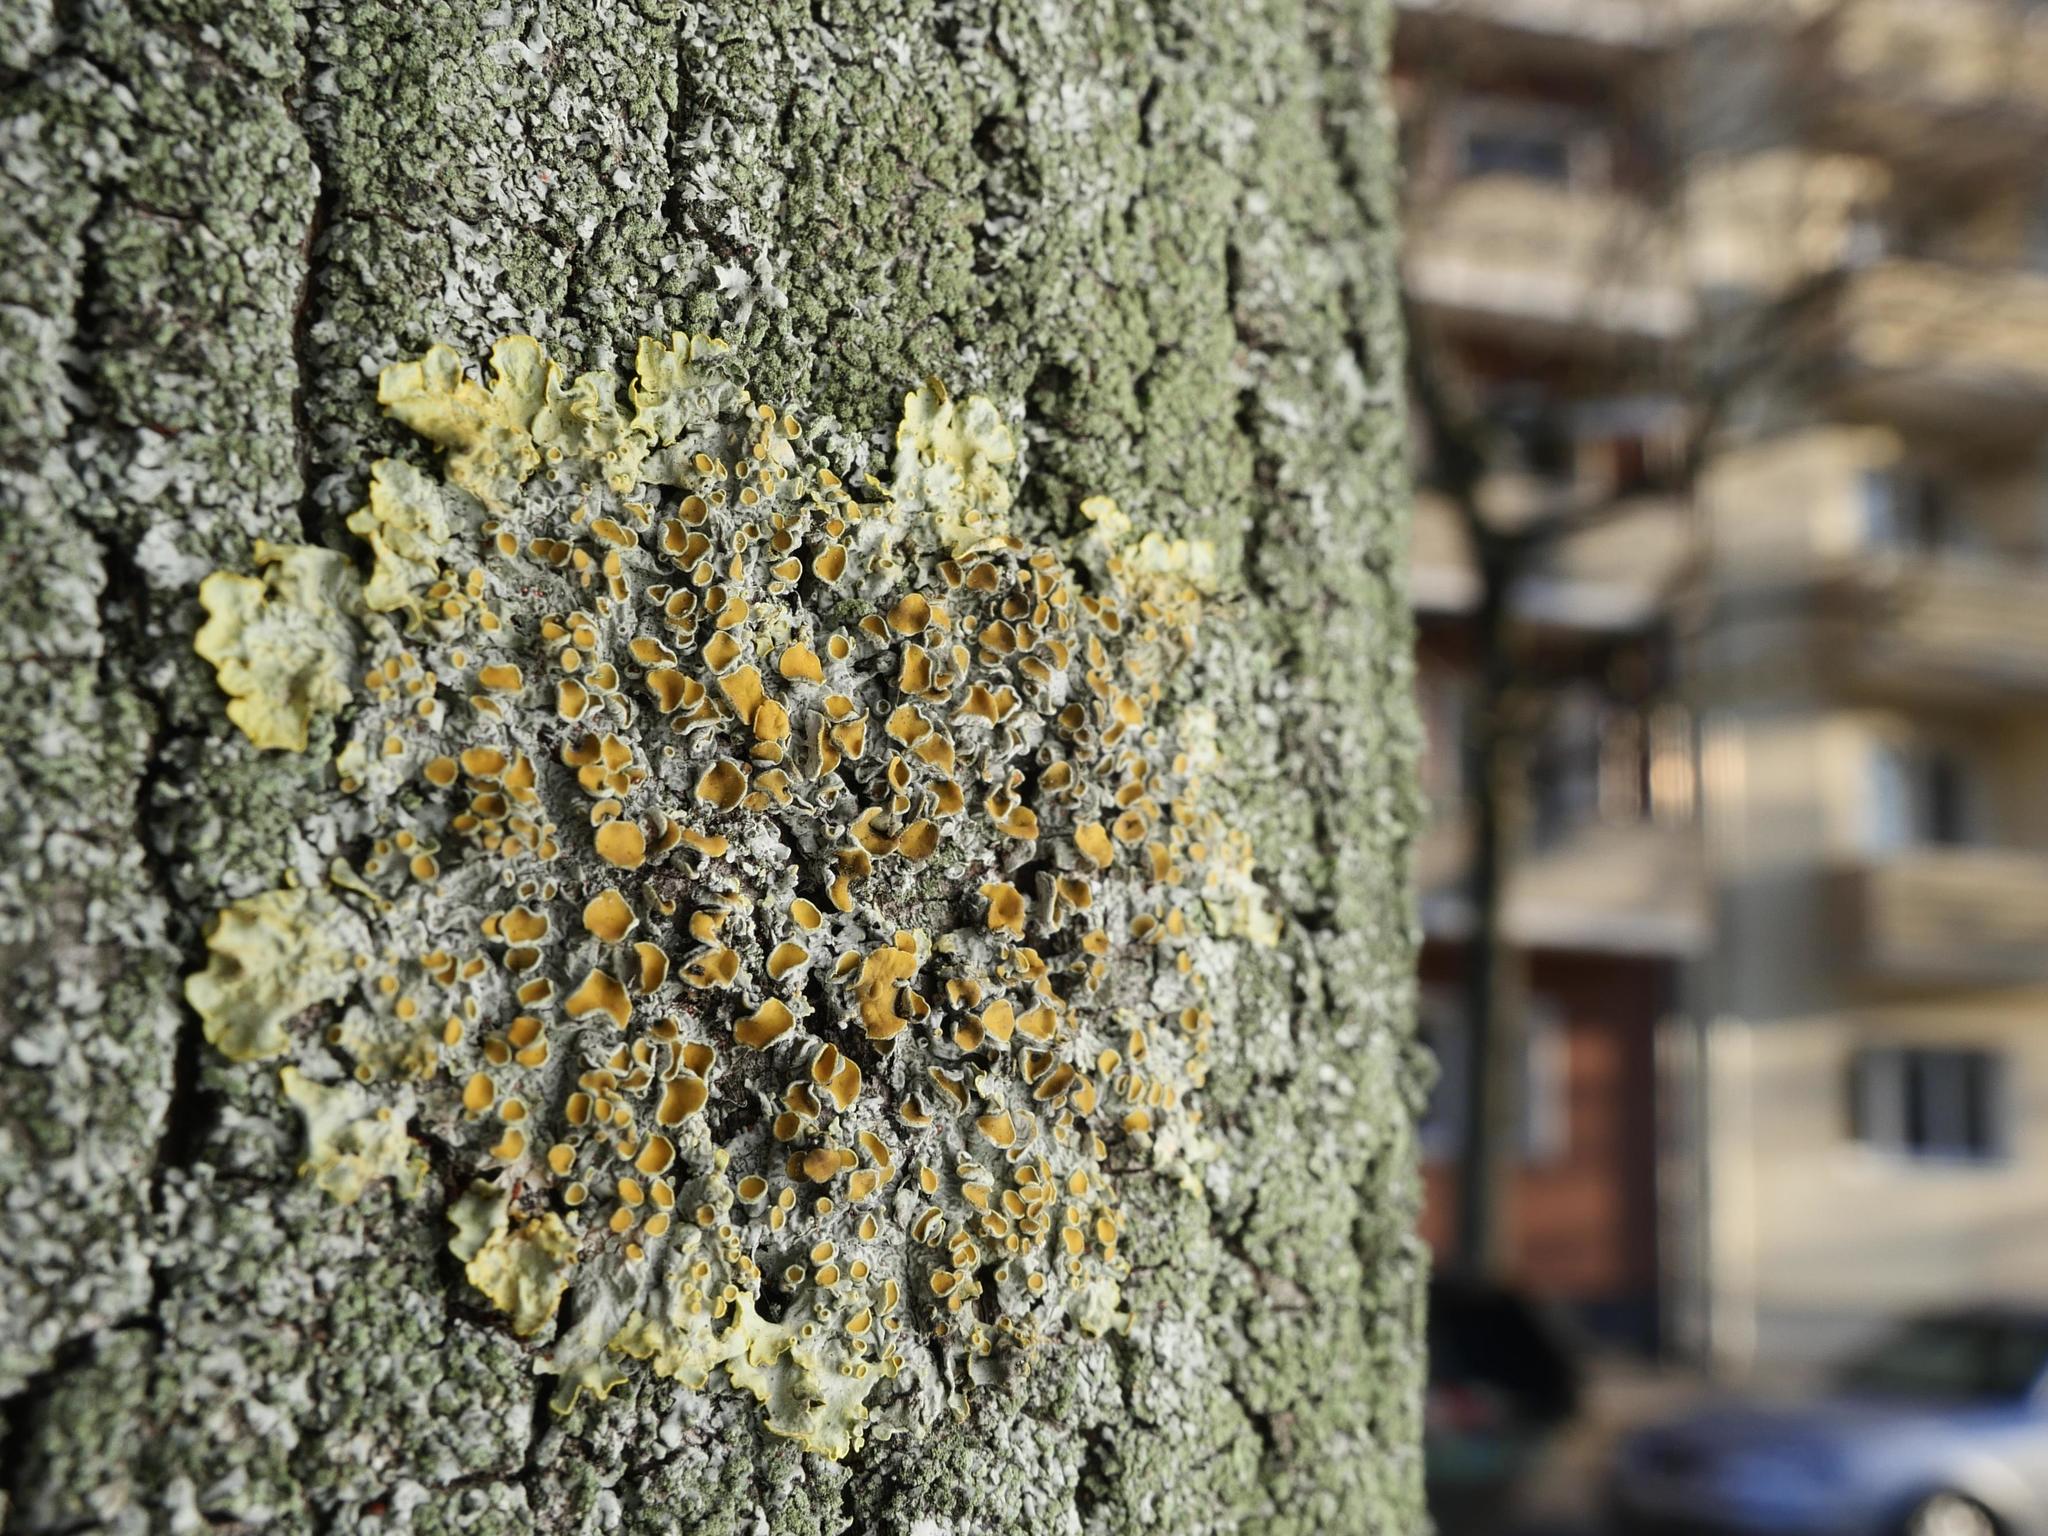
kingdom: Fungi
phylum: Ascomycota
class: Lecanoromycetes
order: Teloschistales
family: Teloschistaceae
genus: Xanthoria
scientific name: Xanthoria parietina
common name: Common orange lichen
